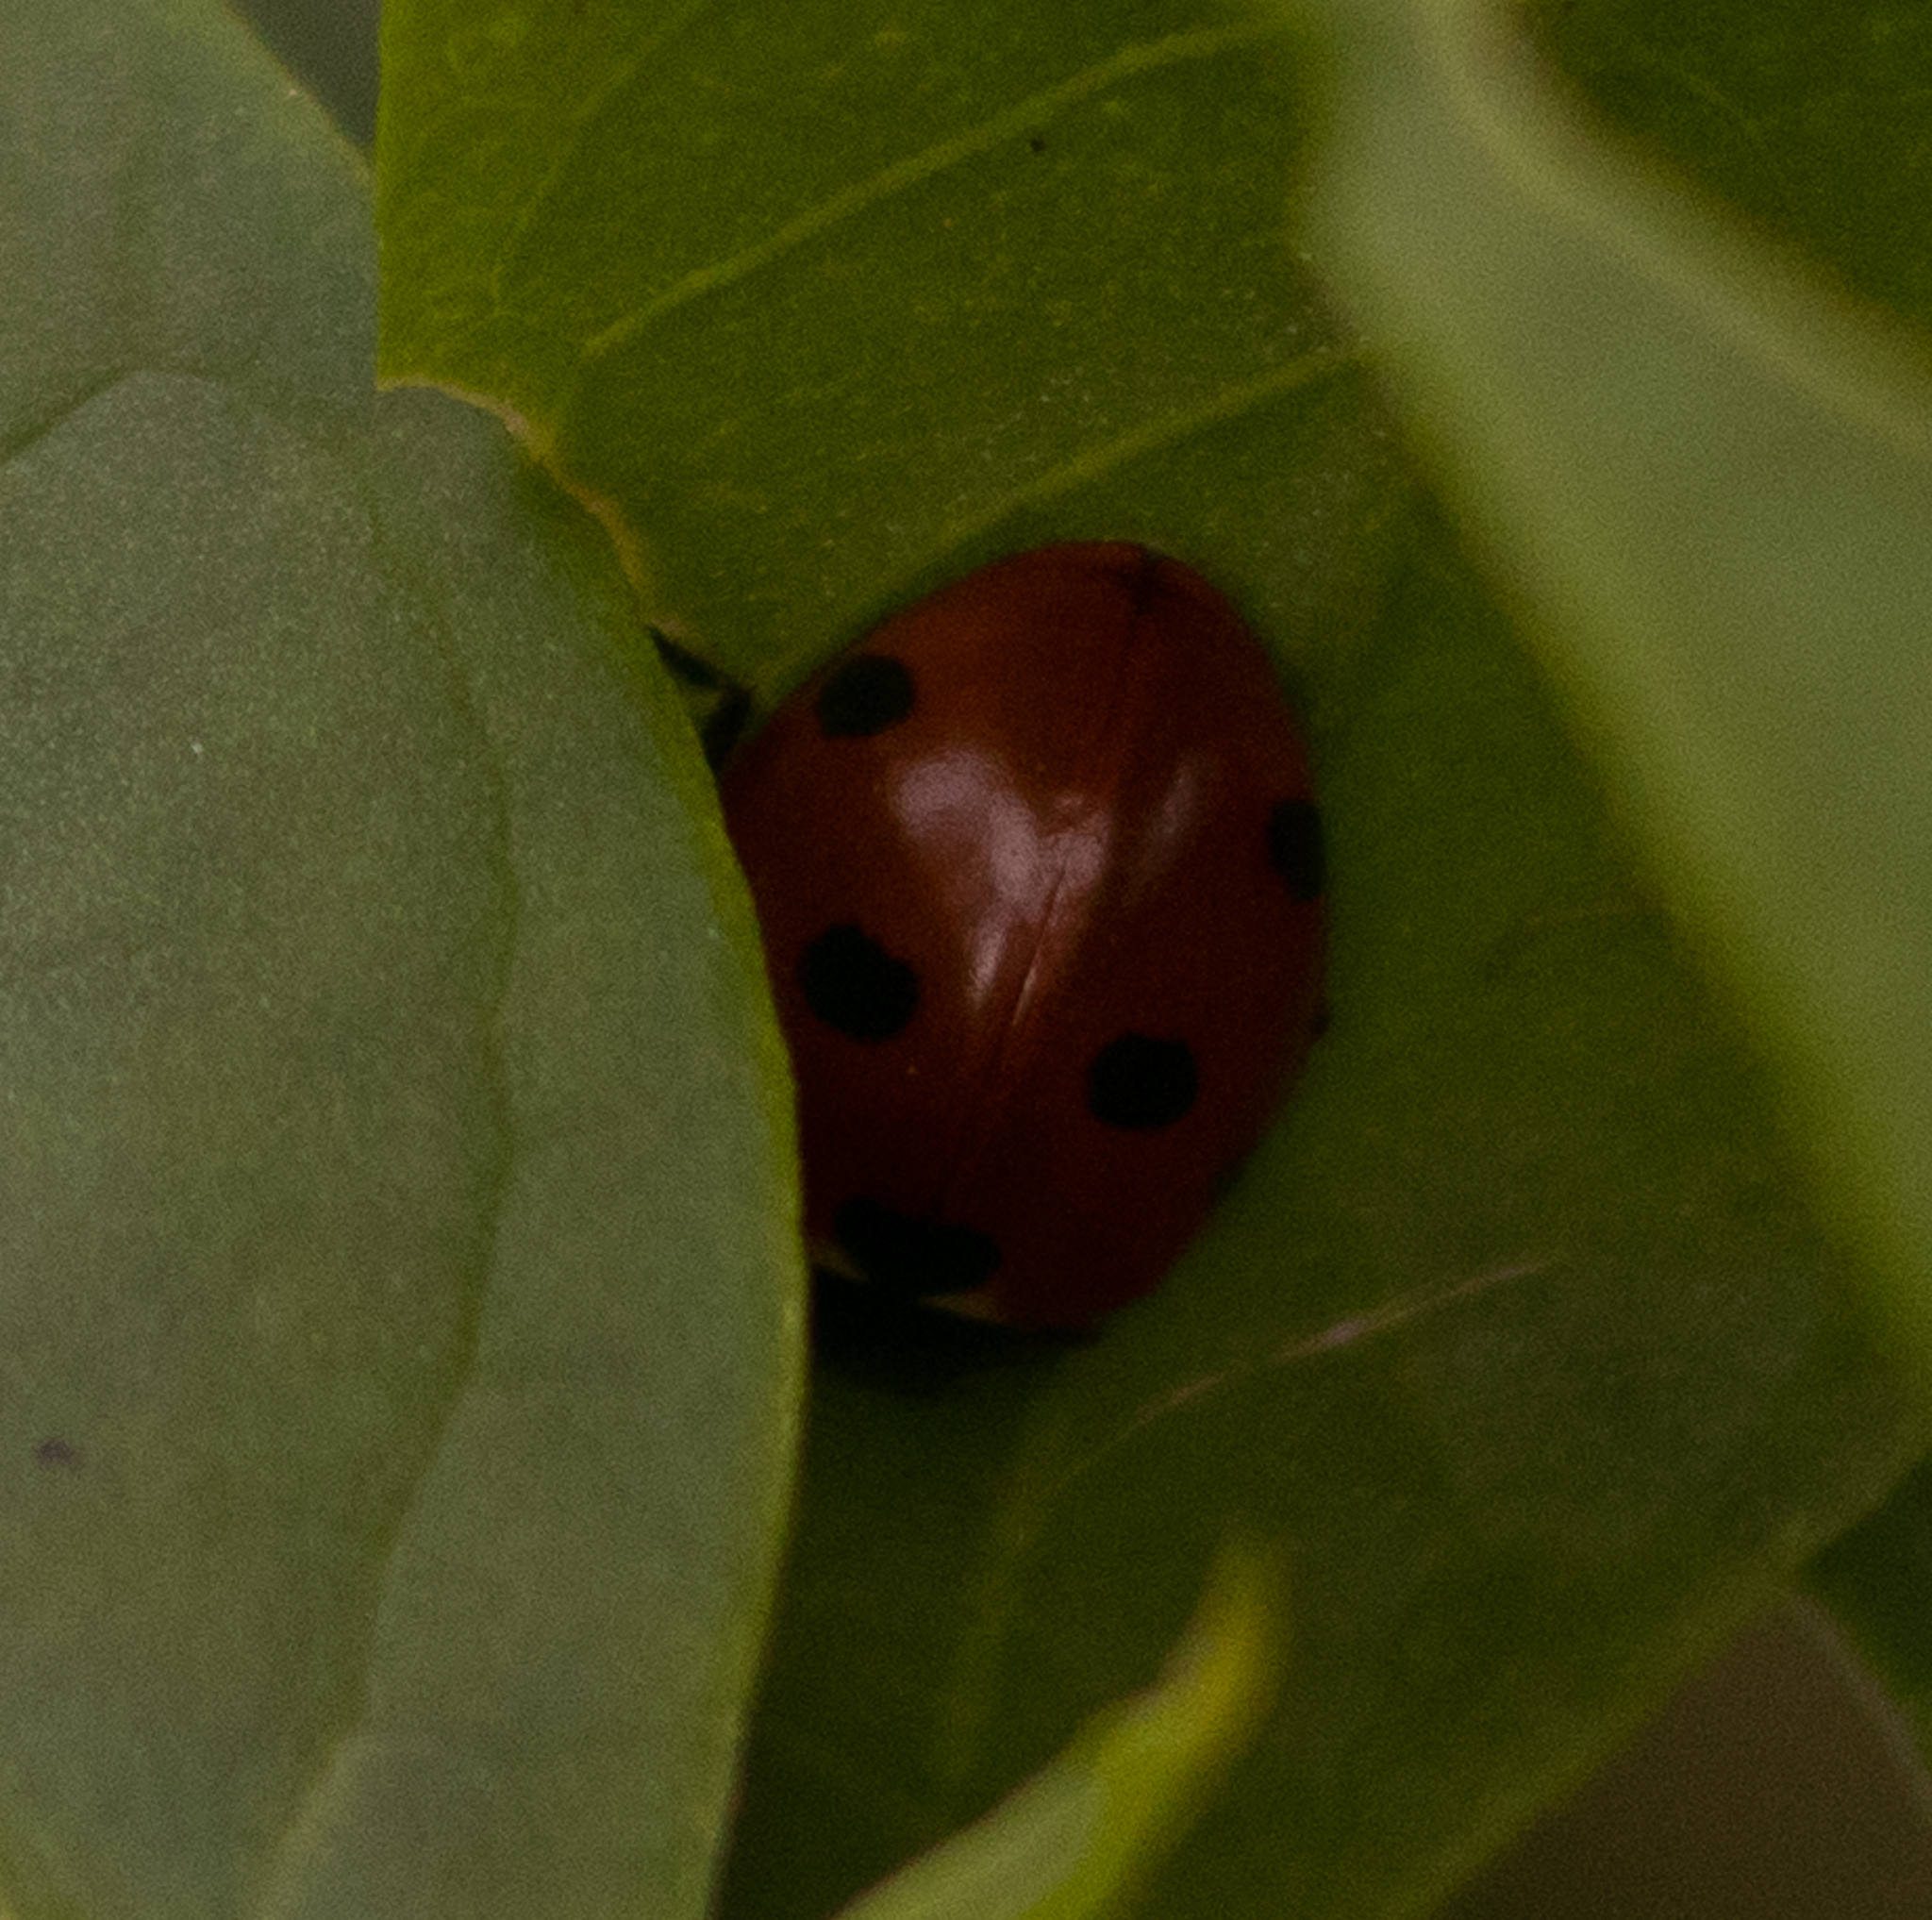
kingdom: Animalia
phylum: Arthropoda
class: Insecta
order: Coleoptera
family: Coccinellidae
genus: Coccinella
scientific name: Coccinella septempunctata
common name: Sevenspotted lady beetle
